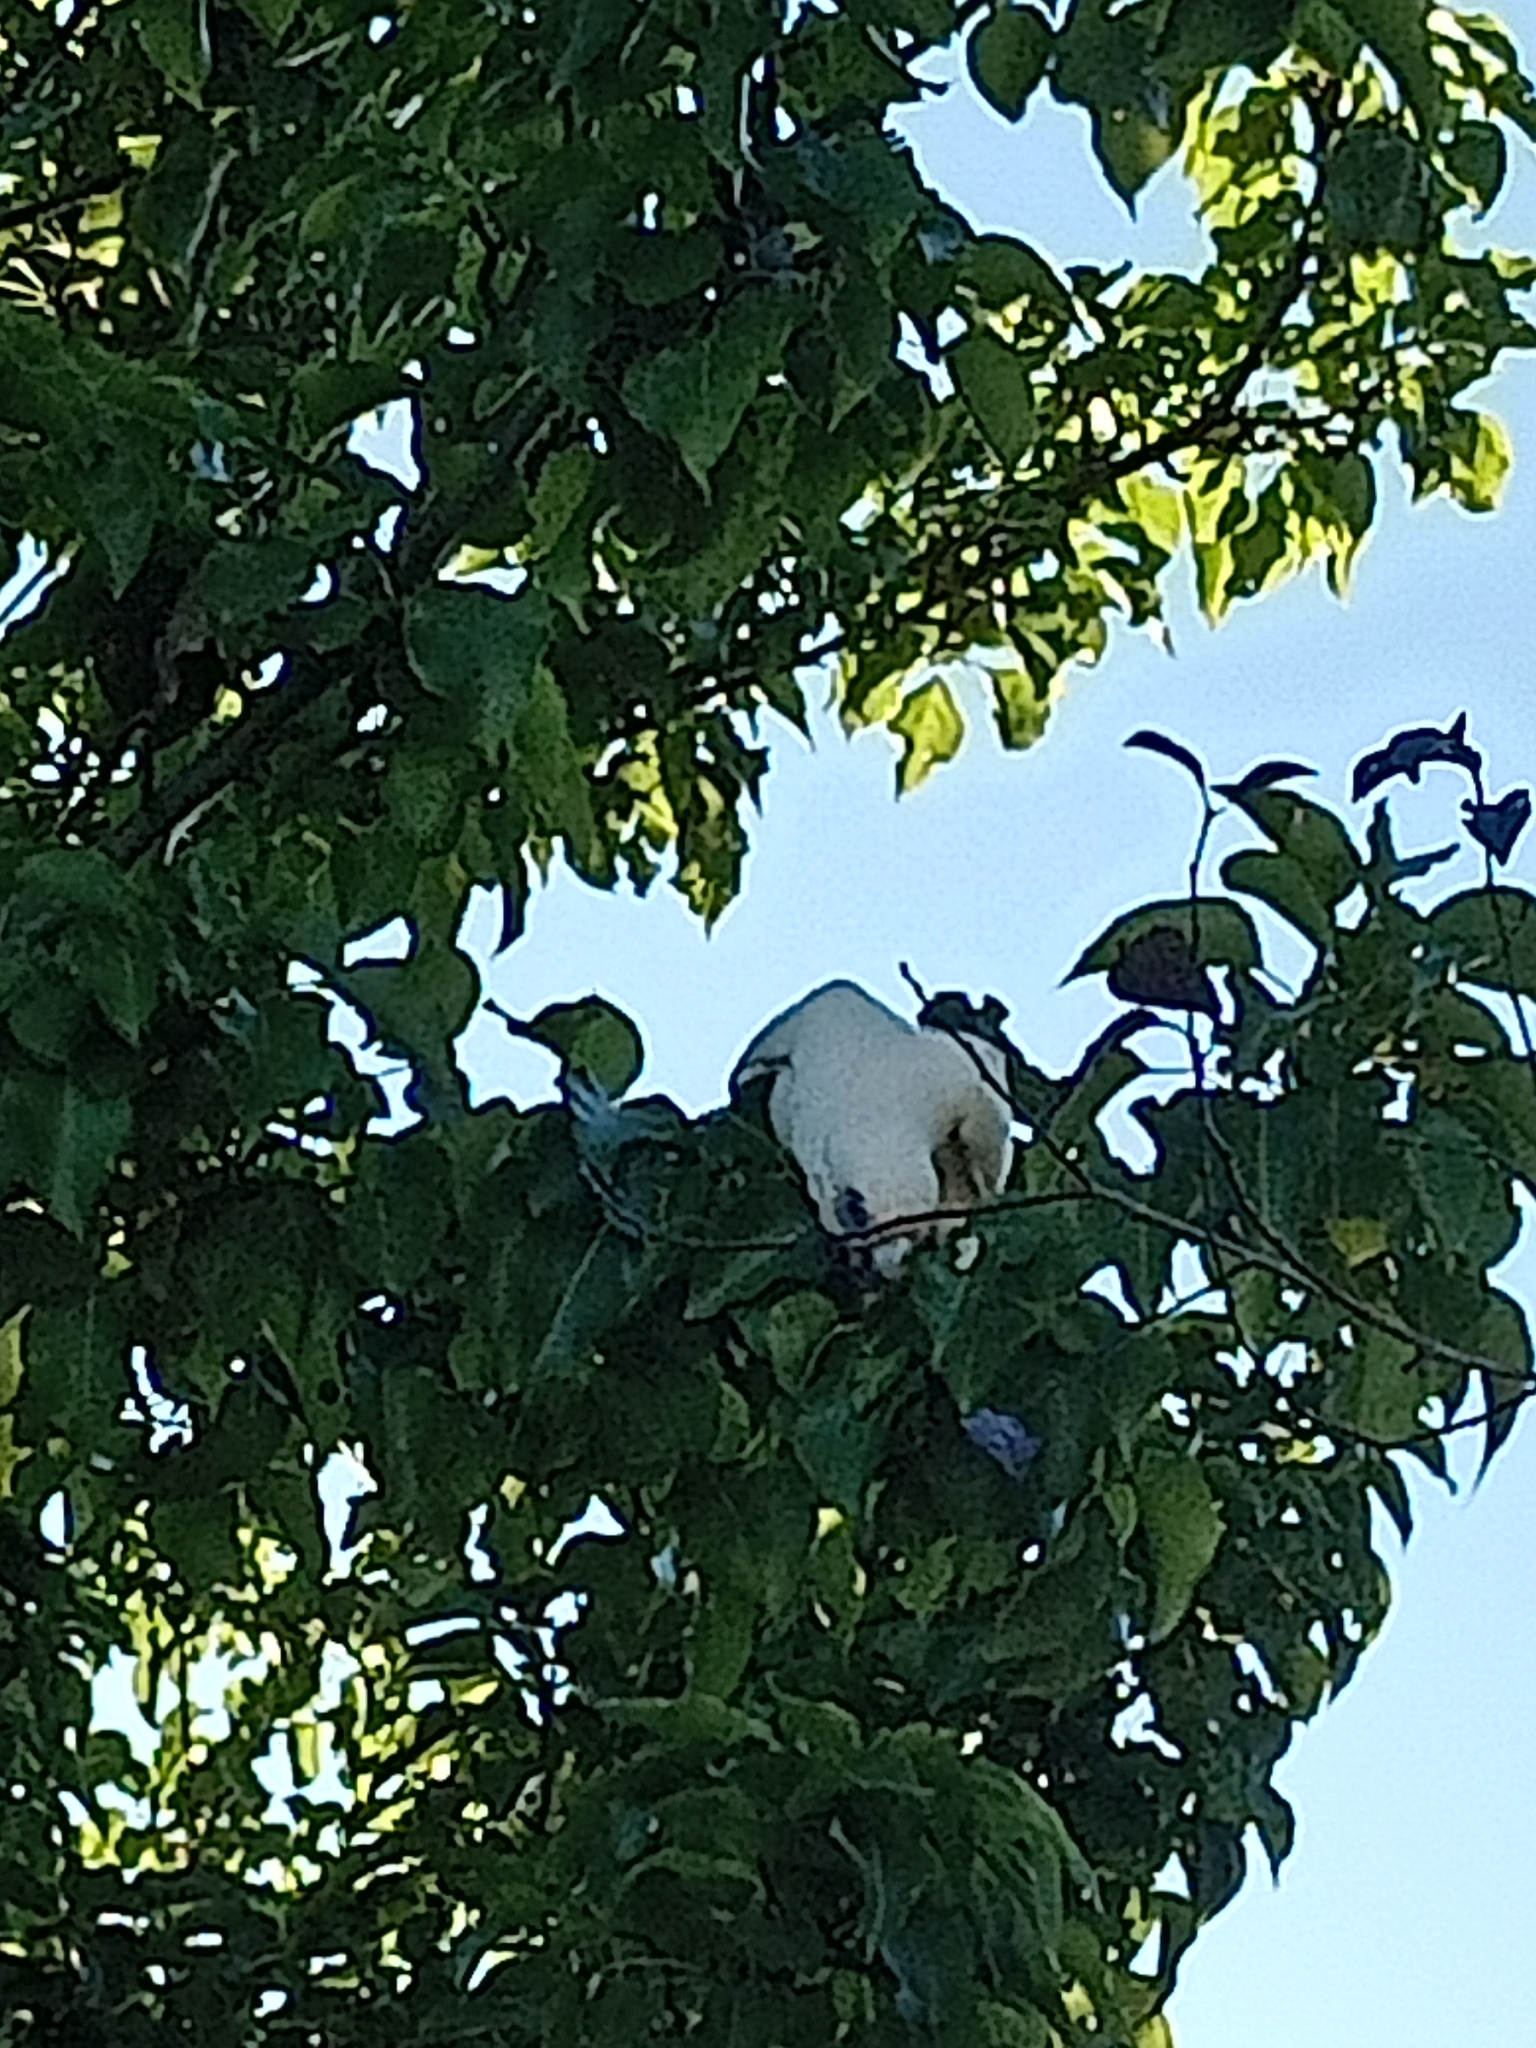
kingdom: Animalia
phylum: Chordata
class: Aves
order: Psittaciformes
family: Psittacidae
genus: Cacatua
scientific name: Cacatua sanguinea
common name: Little corella
